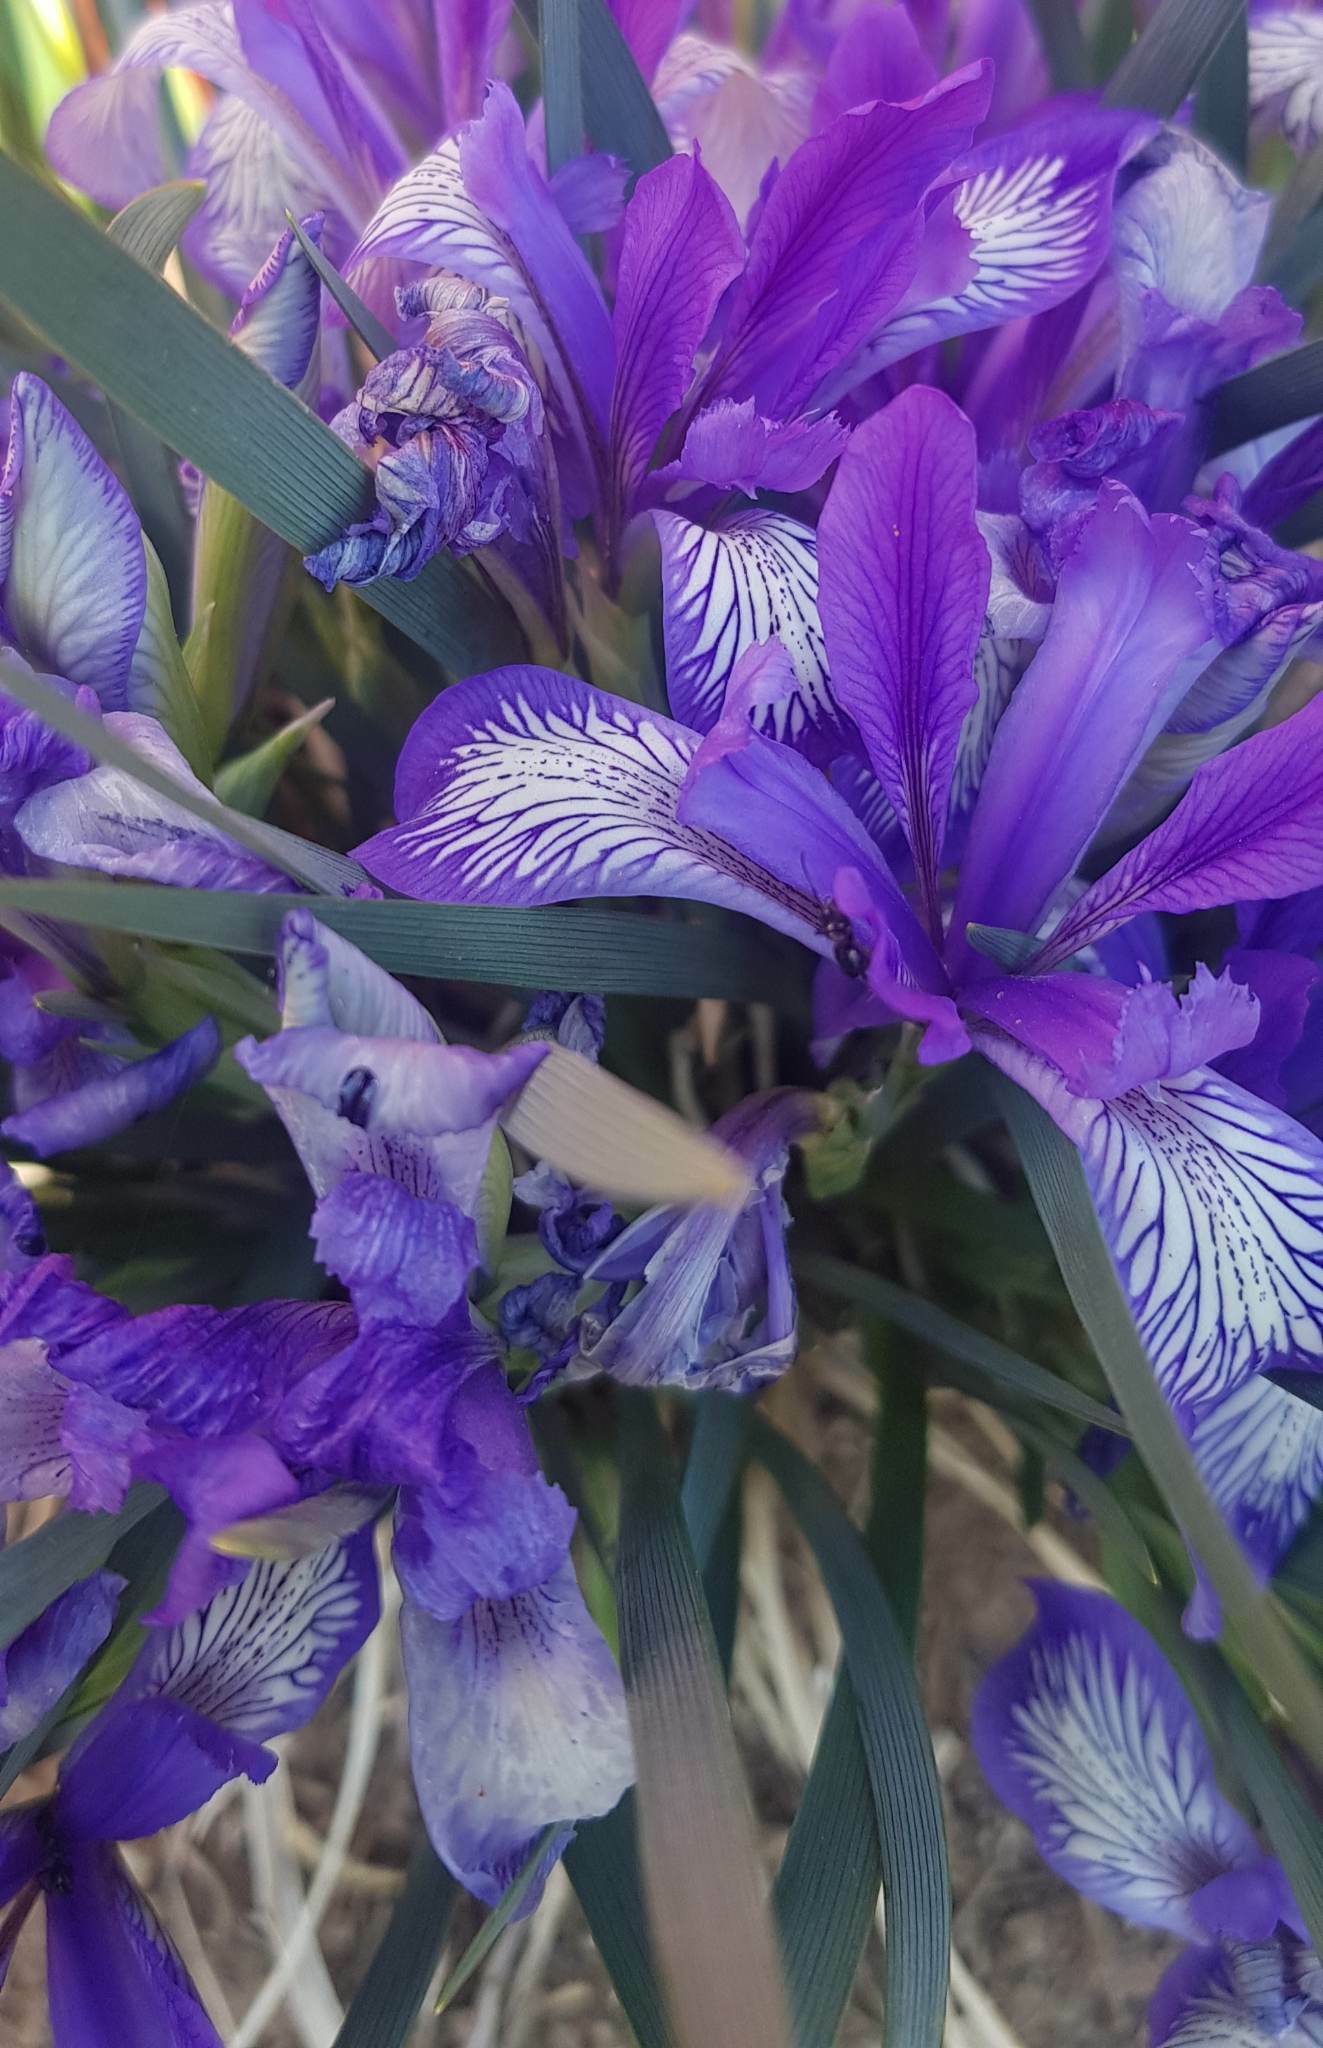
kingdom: Plantae
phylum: Tracheophyta
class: Liliopsida
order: Asparagales
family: Iridaceae
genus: Iris
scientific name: Iris lactea
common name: White-flower chinese iris
